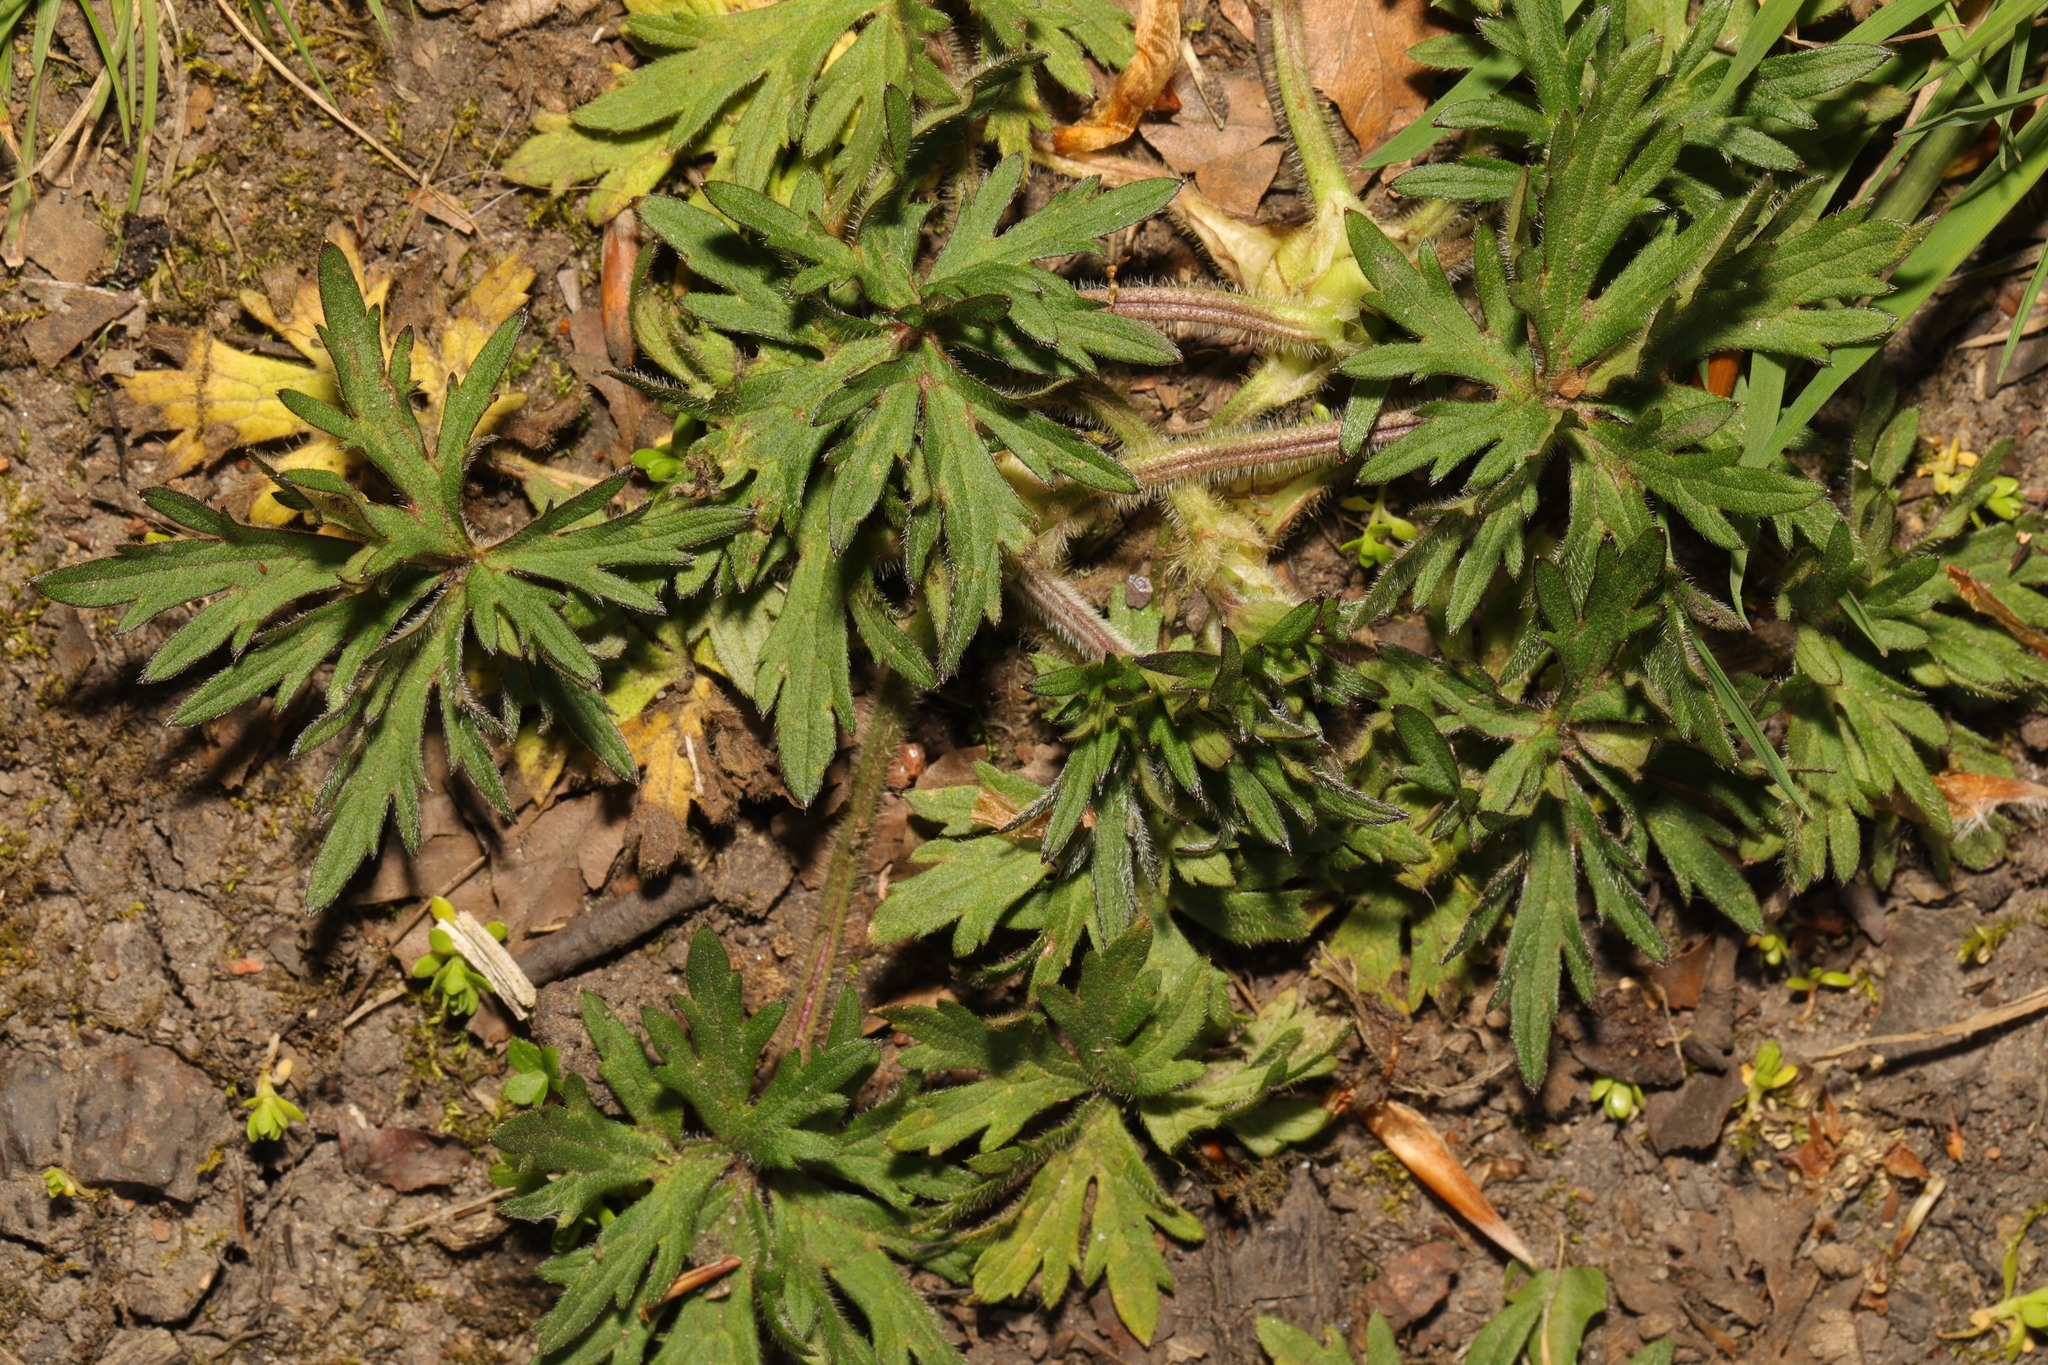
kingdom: Plantae
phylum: Tracheophyta
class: Magnoliopsida
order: Ranunculales
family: Ranunculaceae
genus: Ranunculus
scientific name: Ranunculus acris
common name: Meadow buttercup
